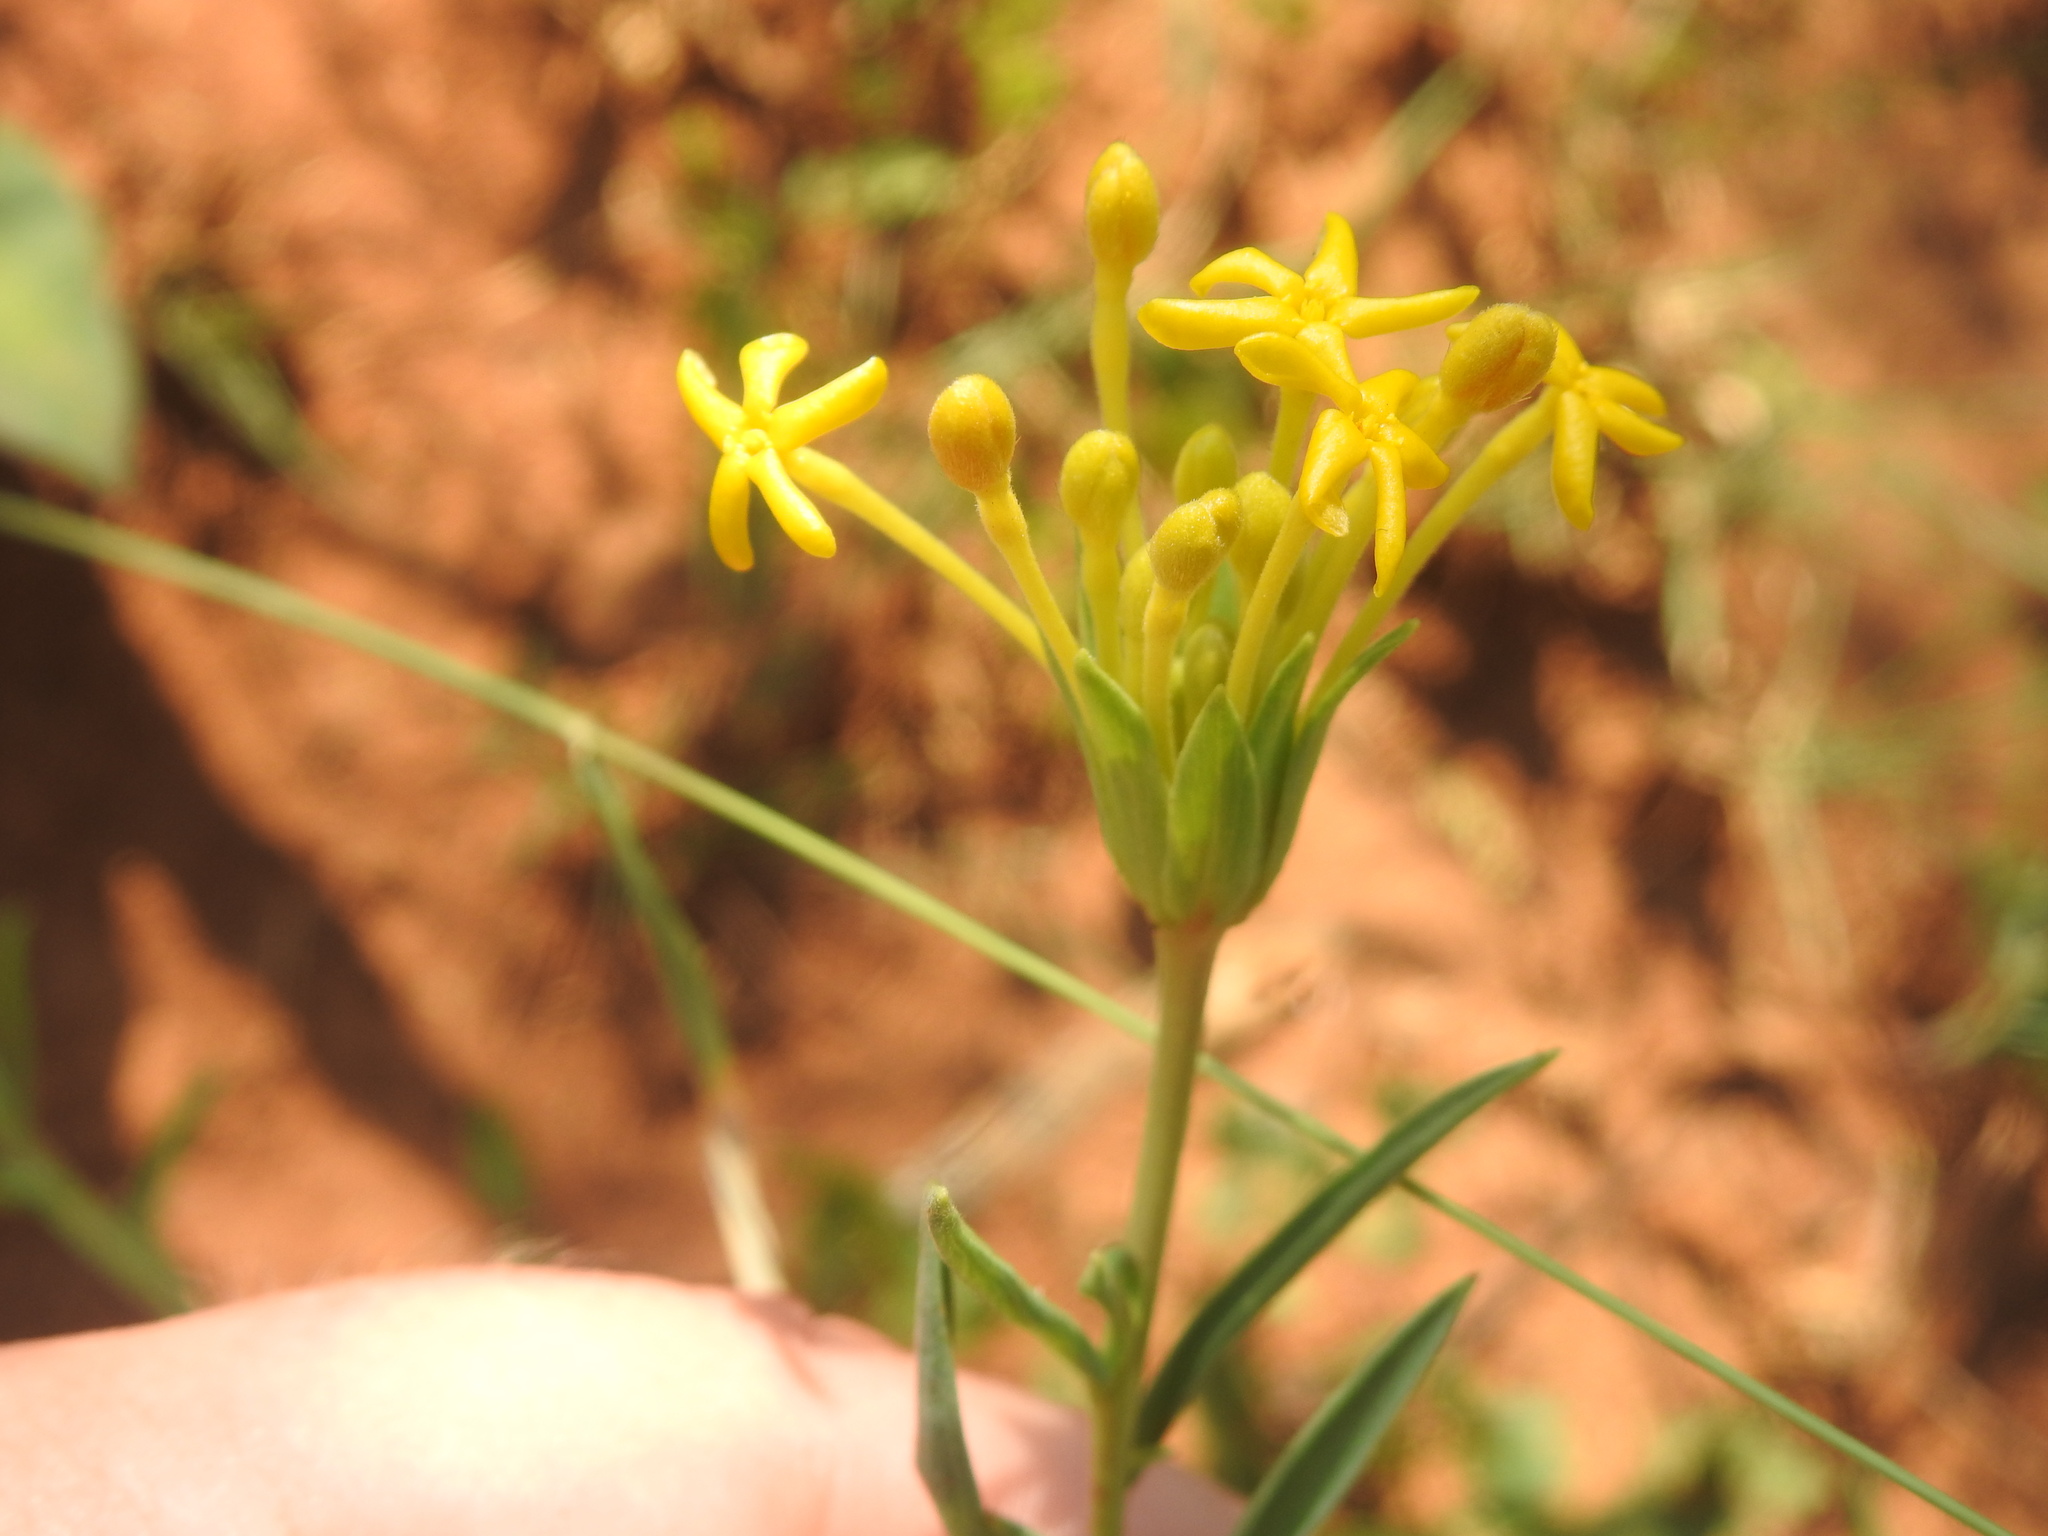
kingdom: Plantae
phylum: Tracheophyta
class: Magnoliopsida
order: Malvales
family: Thymelaeaceae
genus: Gnidia
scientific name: Gnidia capitata
